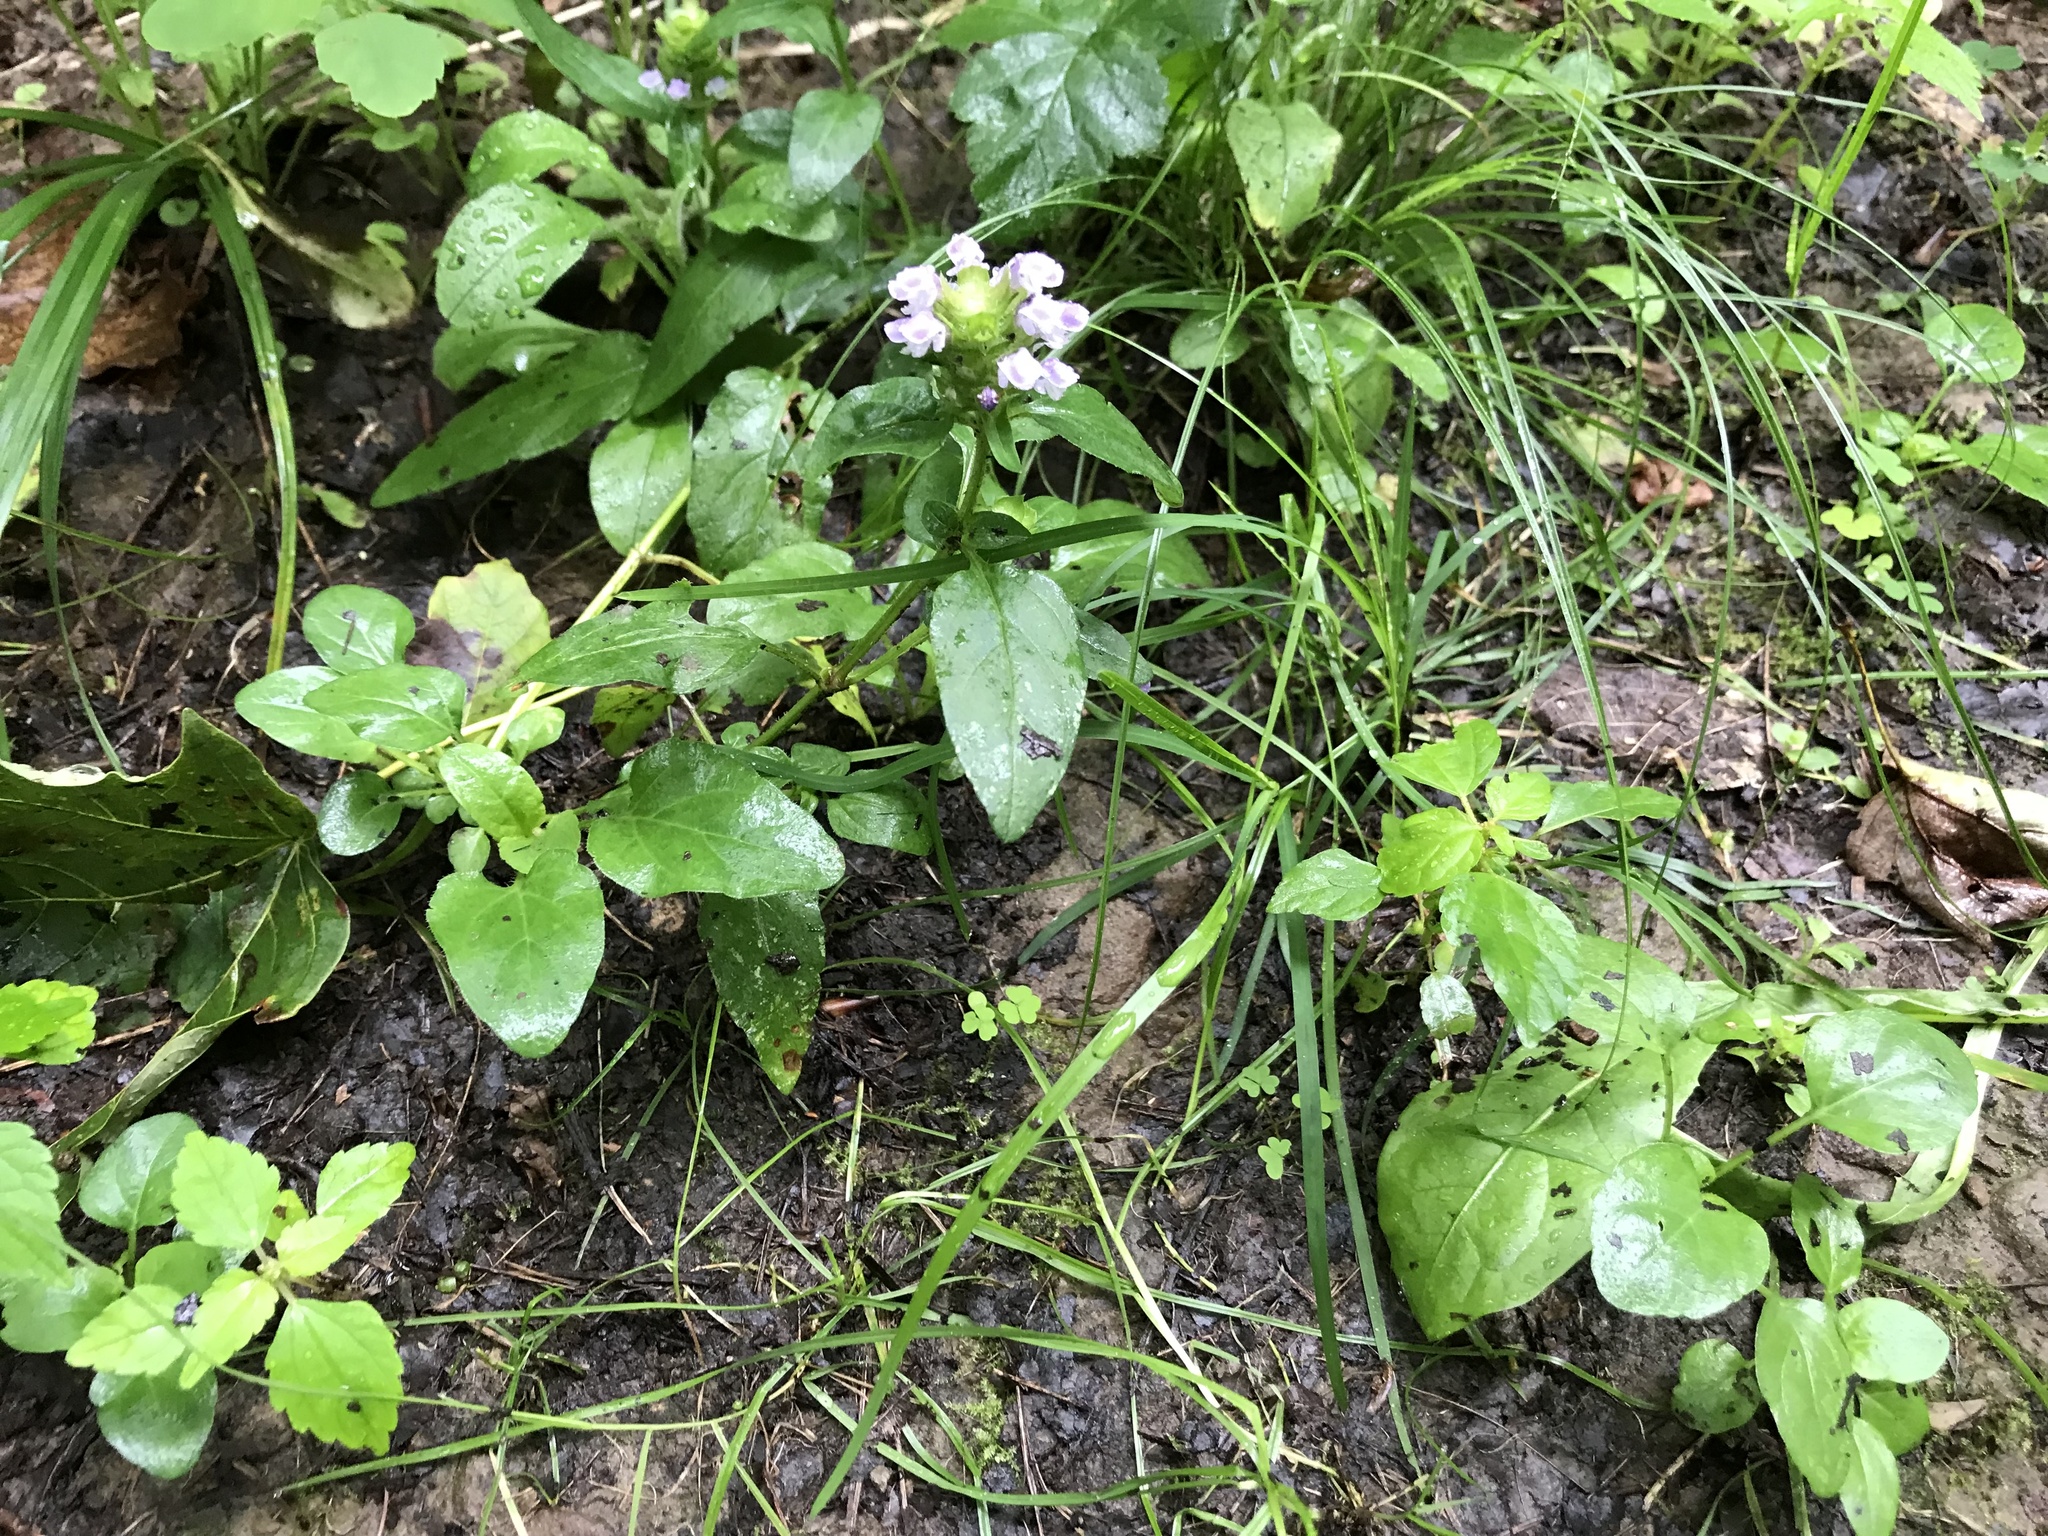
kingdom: Plantae
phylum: Tracheophyta
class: Magnoliopsida
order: Lamiales
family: Lamiaceae
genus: Prunella
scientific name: Prunella vulgaris
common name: Heal-all
